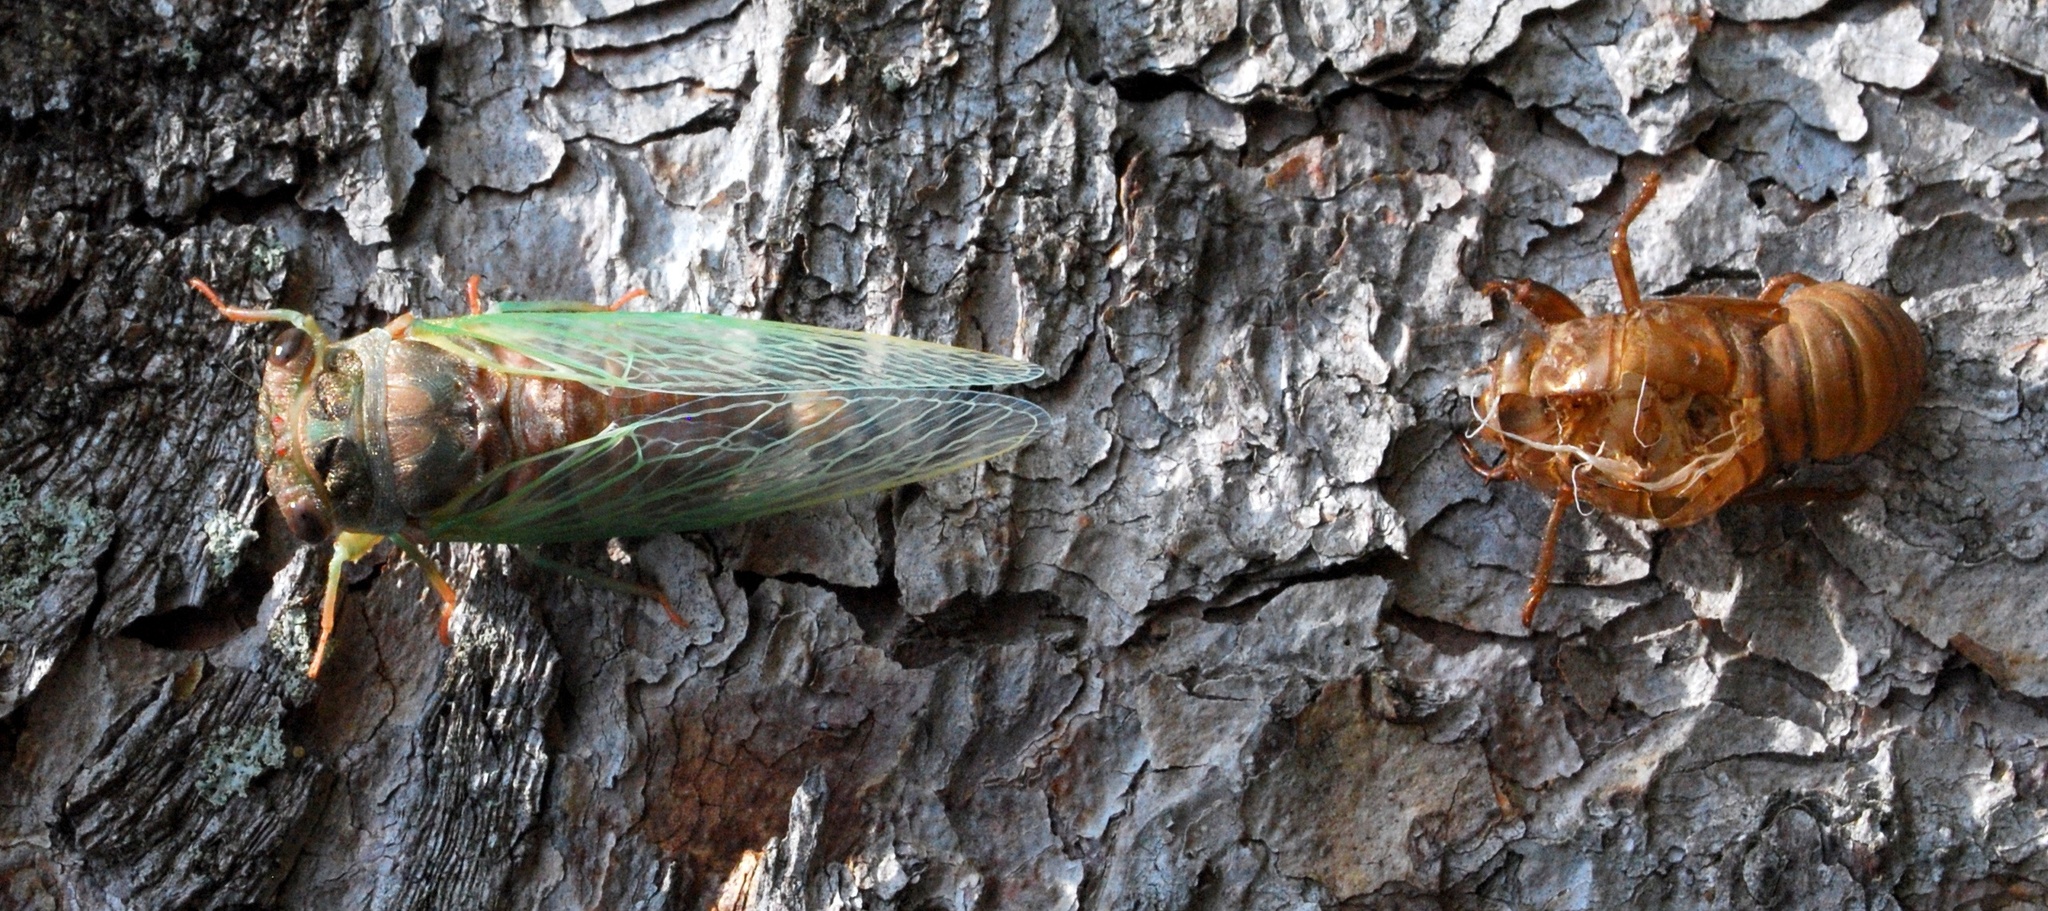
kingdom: Animalia
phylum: Arthropoda
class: Insecta
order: Hemiptera
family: Cicadidae
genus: Neotibicen
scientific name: Neotibicen canicularis
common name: God-day cicada
